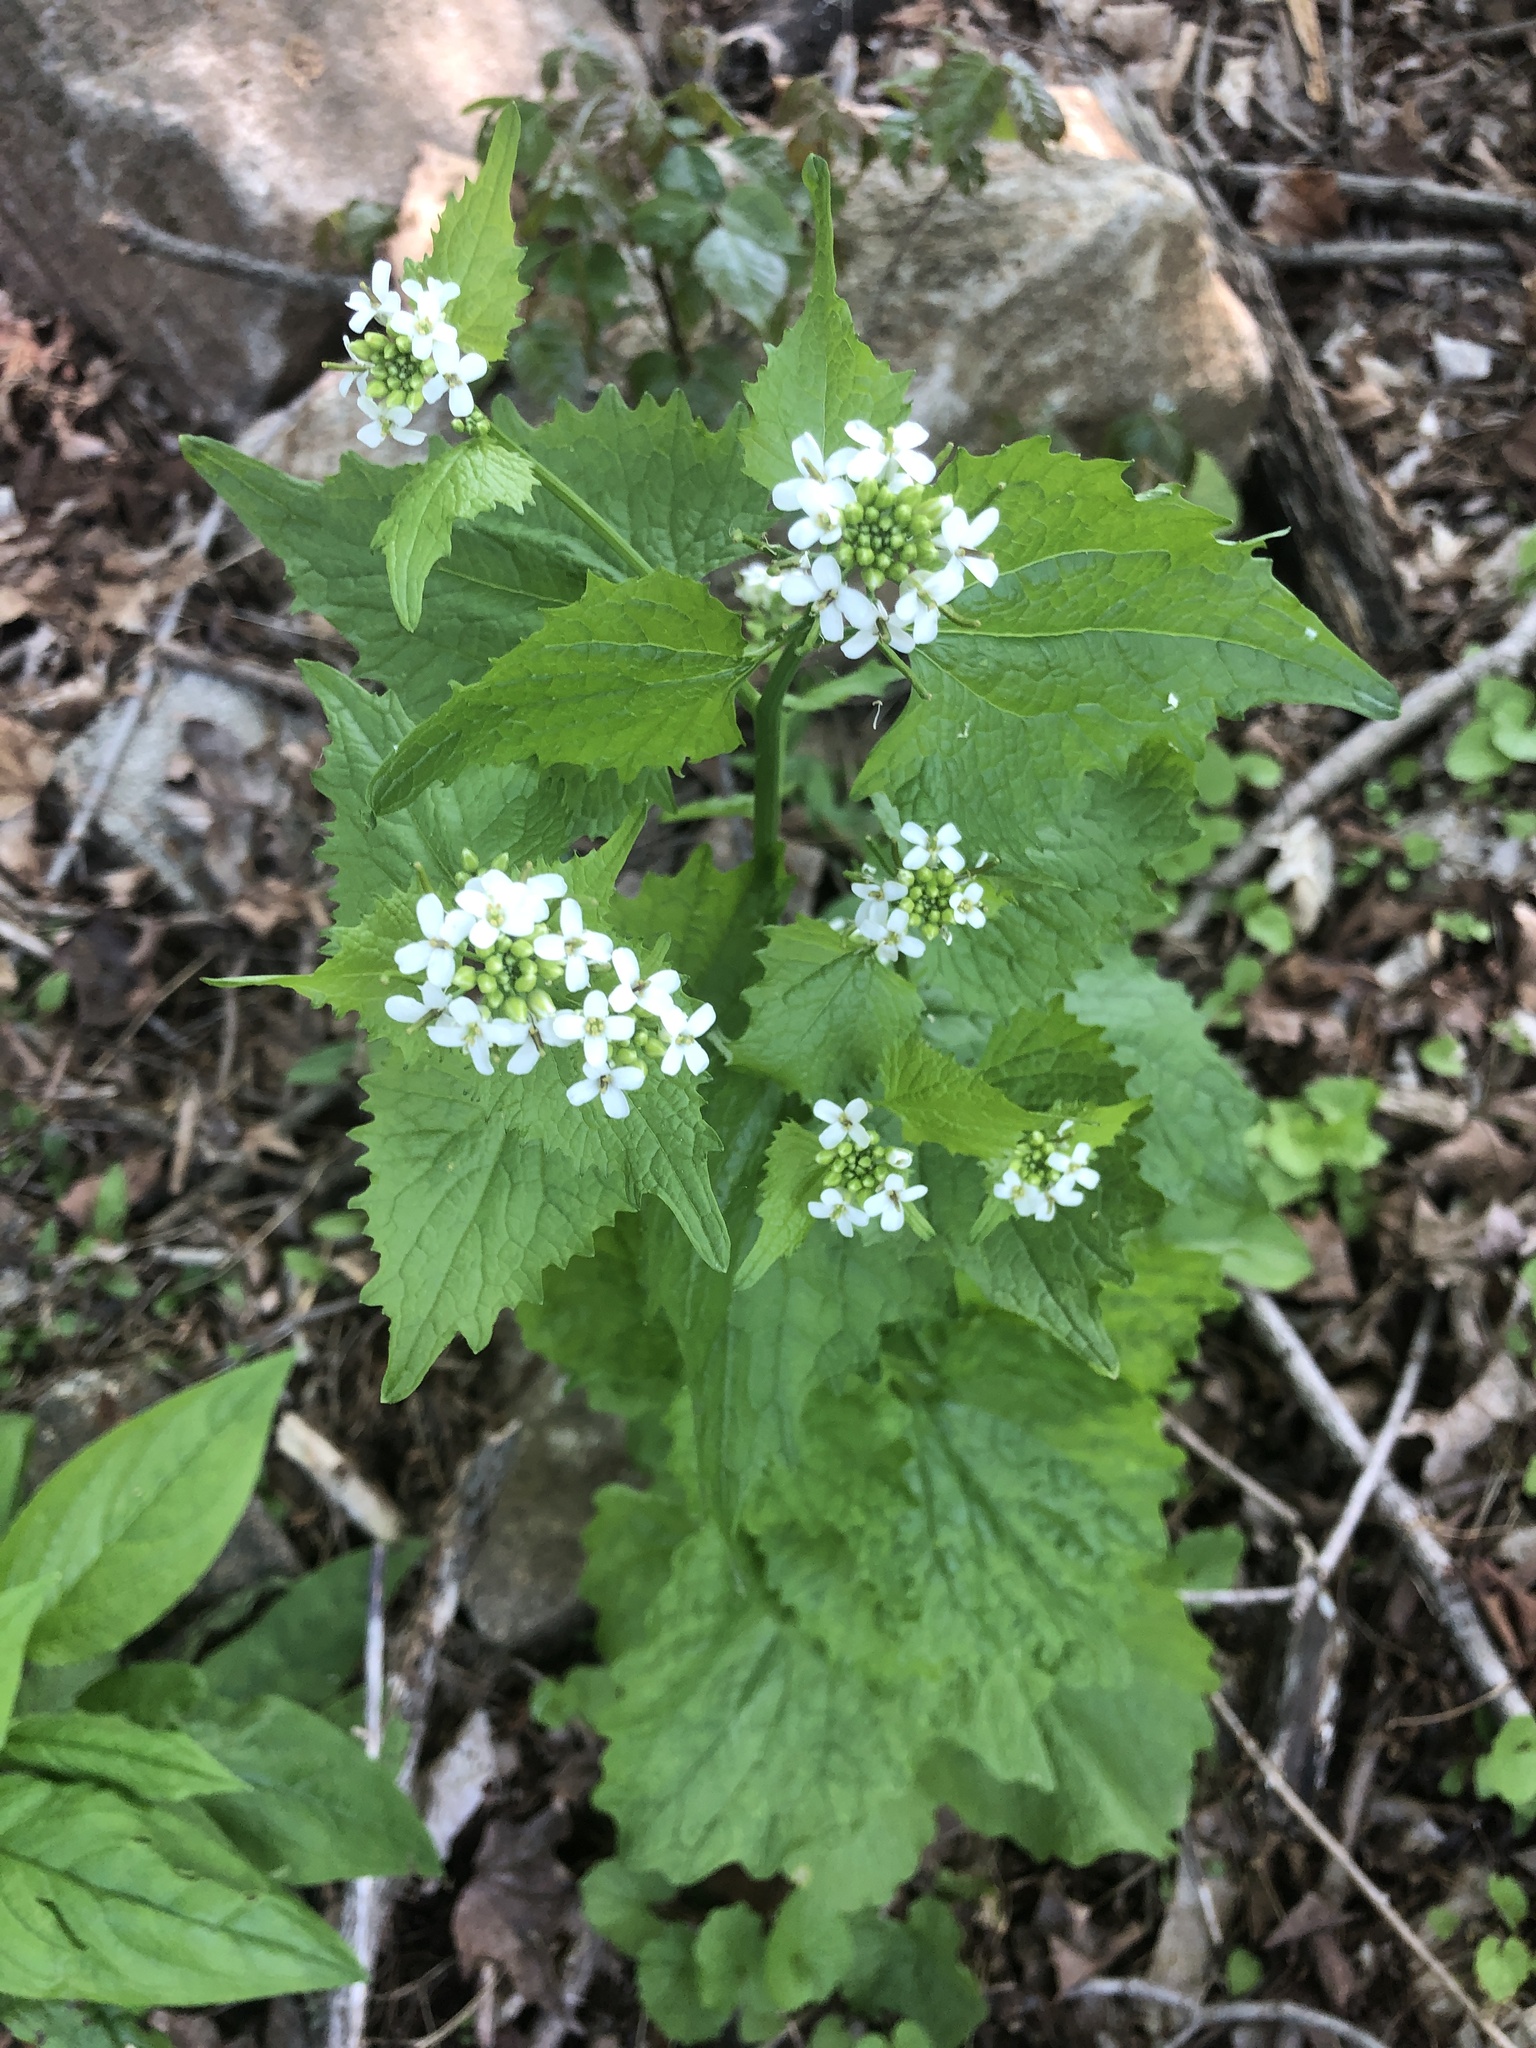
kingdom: Plantae
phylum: Tracheophyta
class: Magnoliopsida
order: Brassicales
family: Brassicaceae
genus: Alliaria
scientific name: Alliaria petiolata
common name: Garlic mustard
